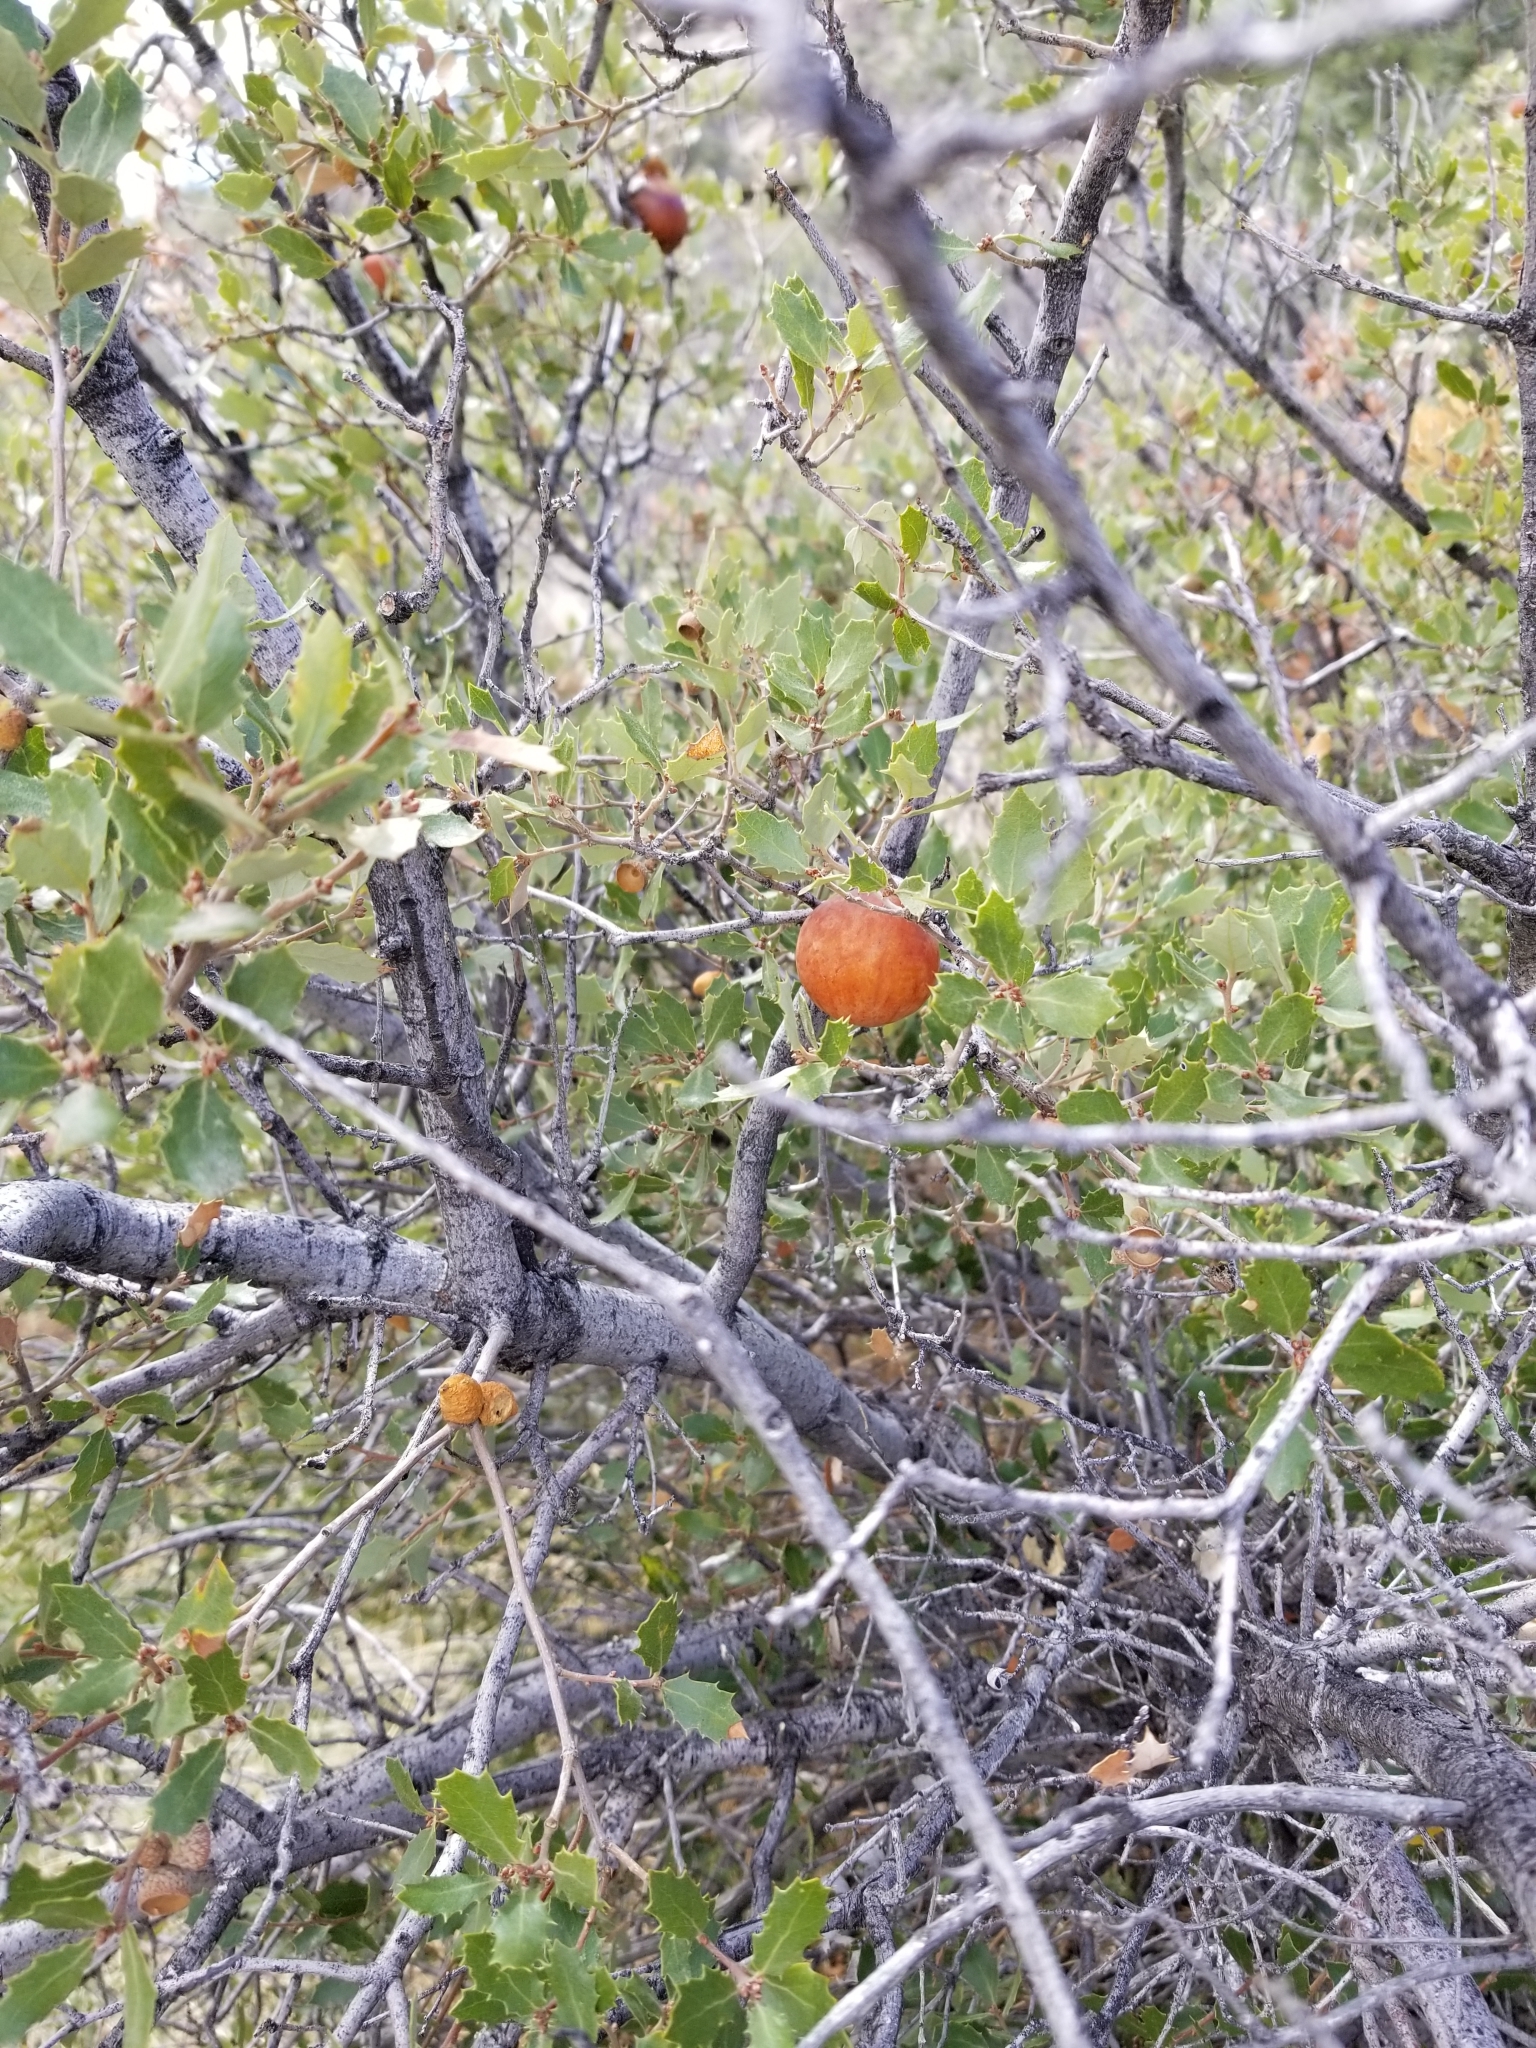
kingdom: Plantae
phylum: Tracheophyta
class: Magnoliopsida
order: Fagales
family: Fagaceae
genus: Quercus
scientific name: Quercus cornelius-mulleri
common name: Muller oak
